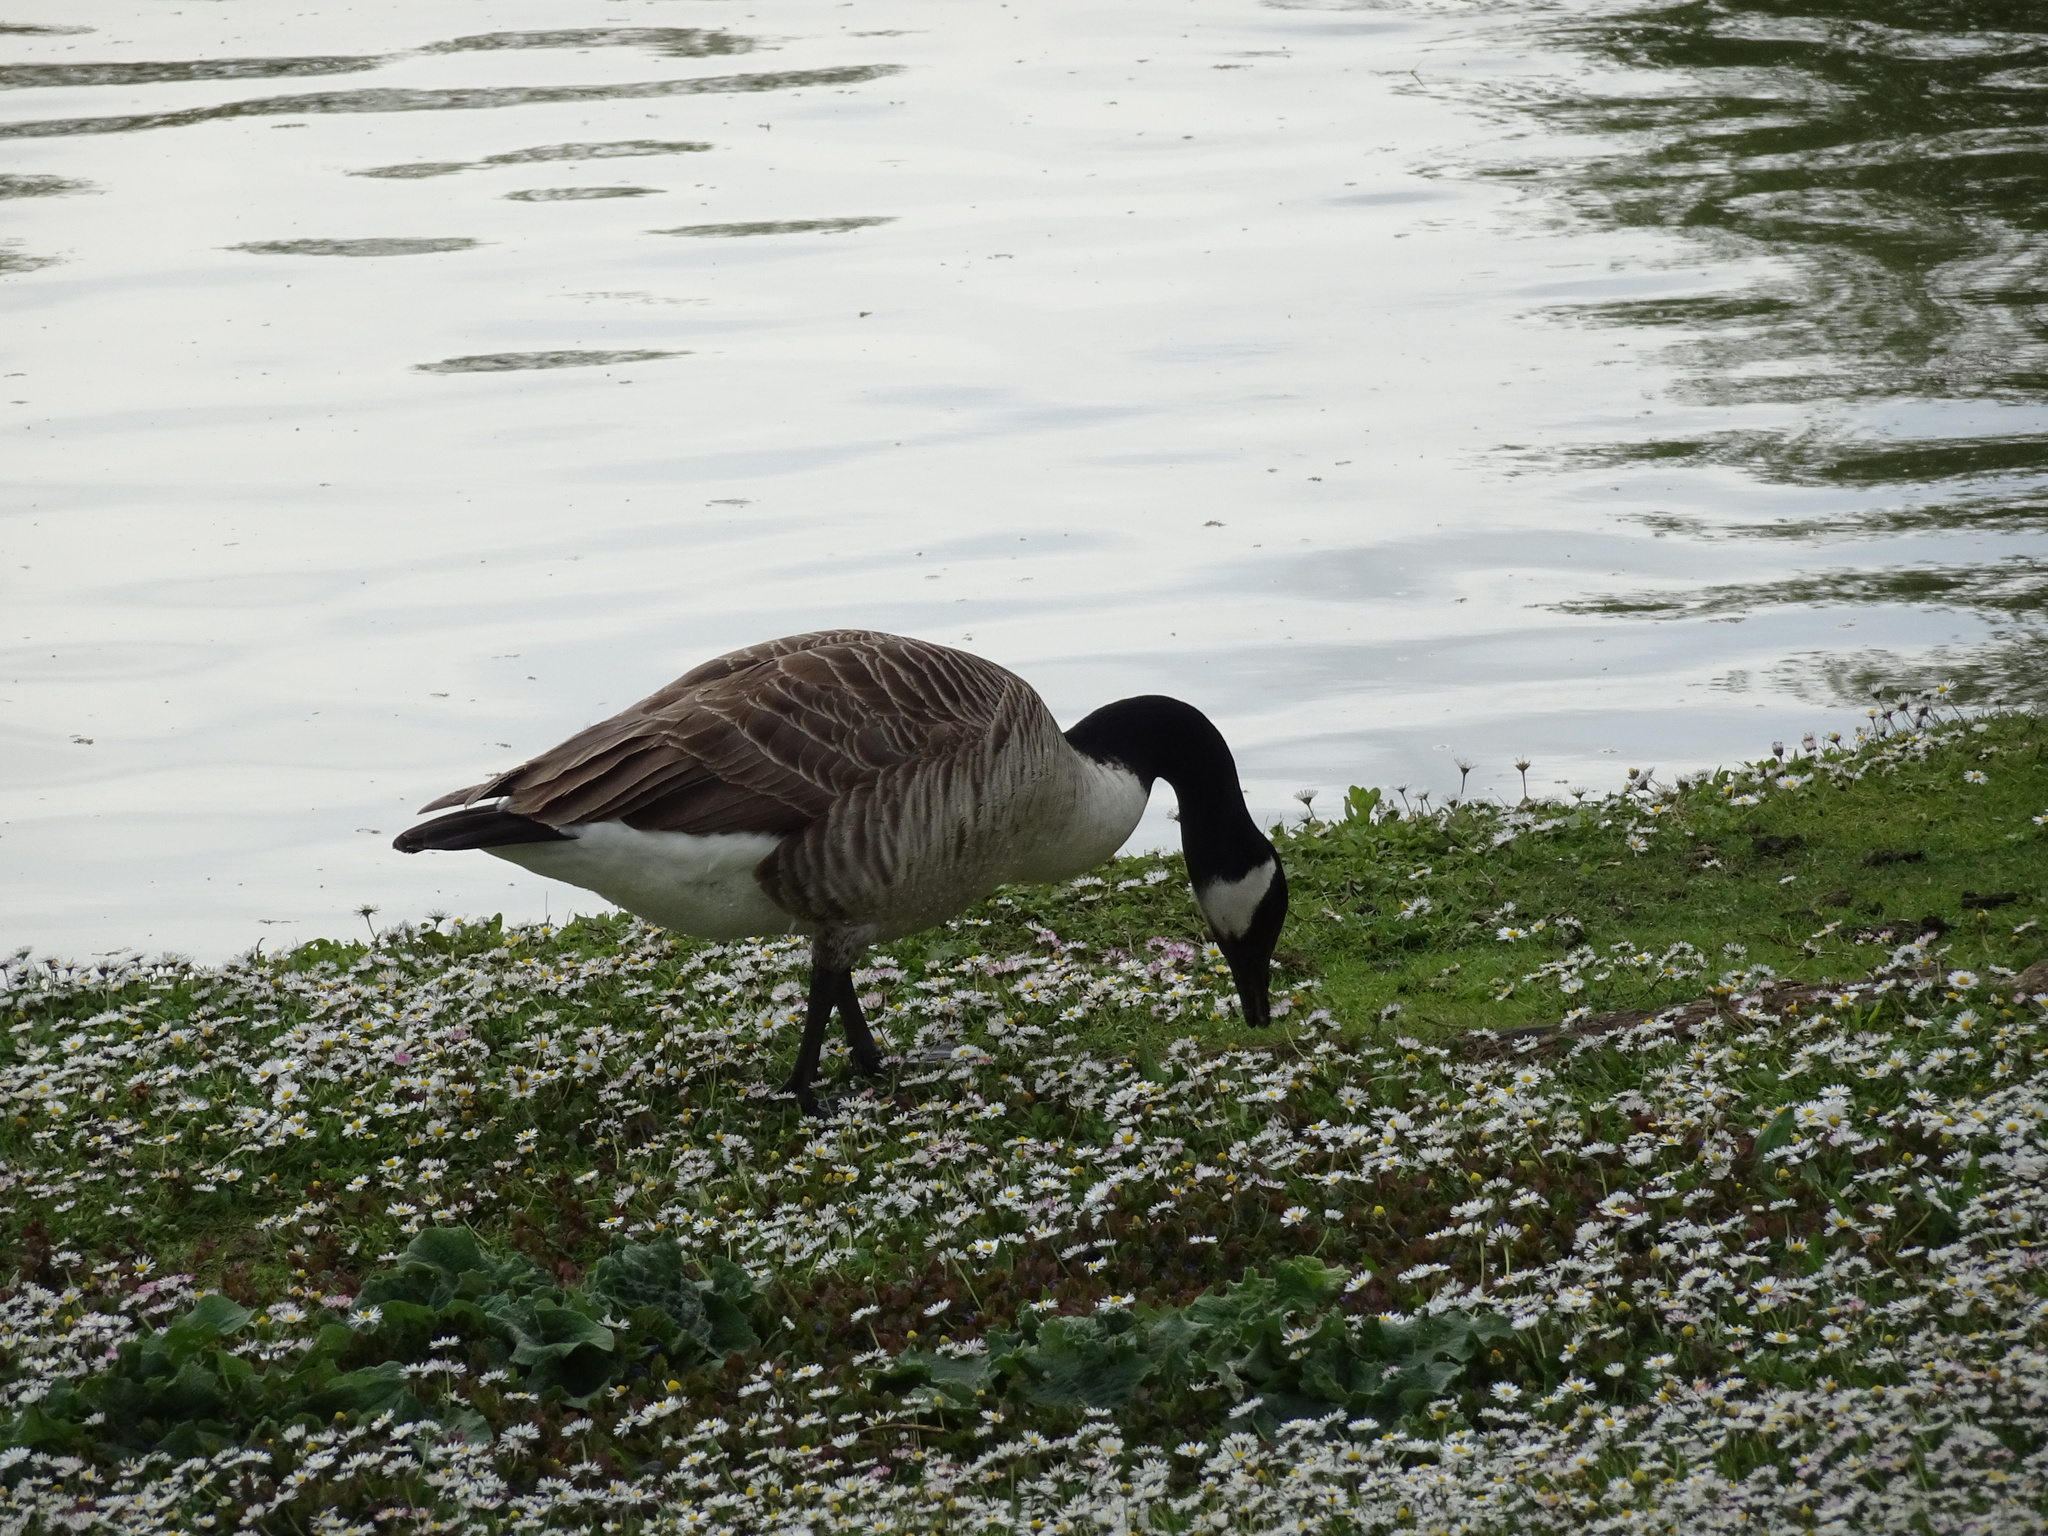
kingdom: Animalia
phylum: Chordata
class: Aves
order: Anseriformes
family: Anatidae
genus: Branta
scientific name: Branta canadensis
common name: Canada goose
